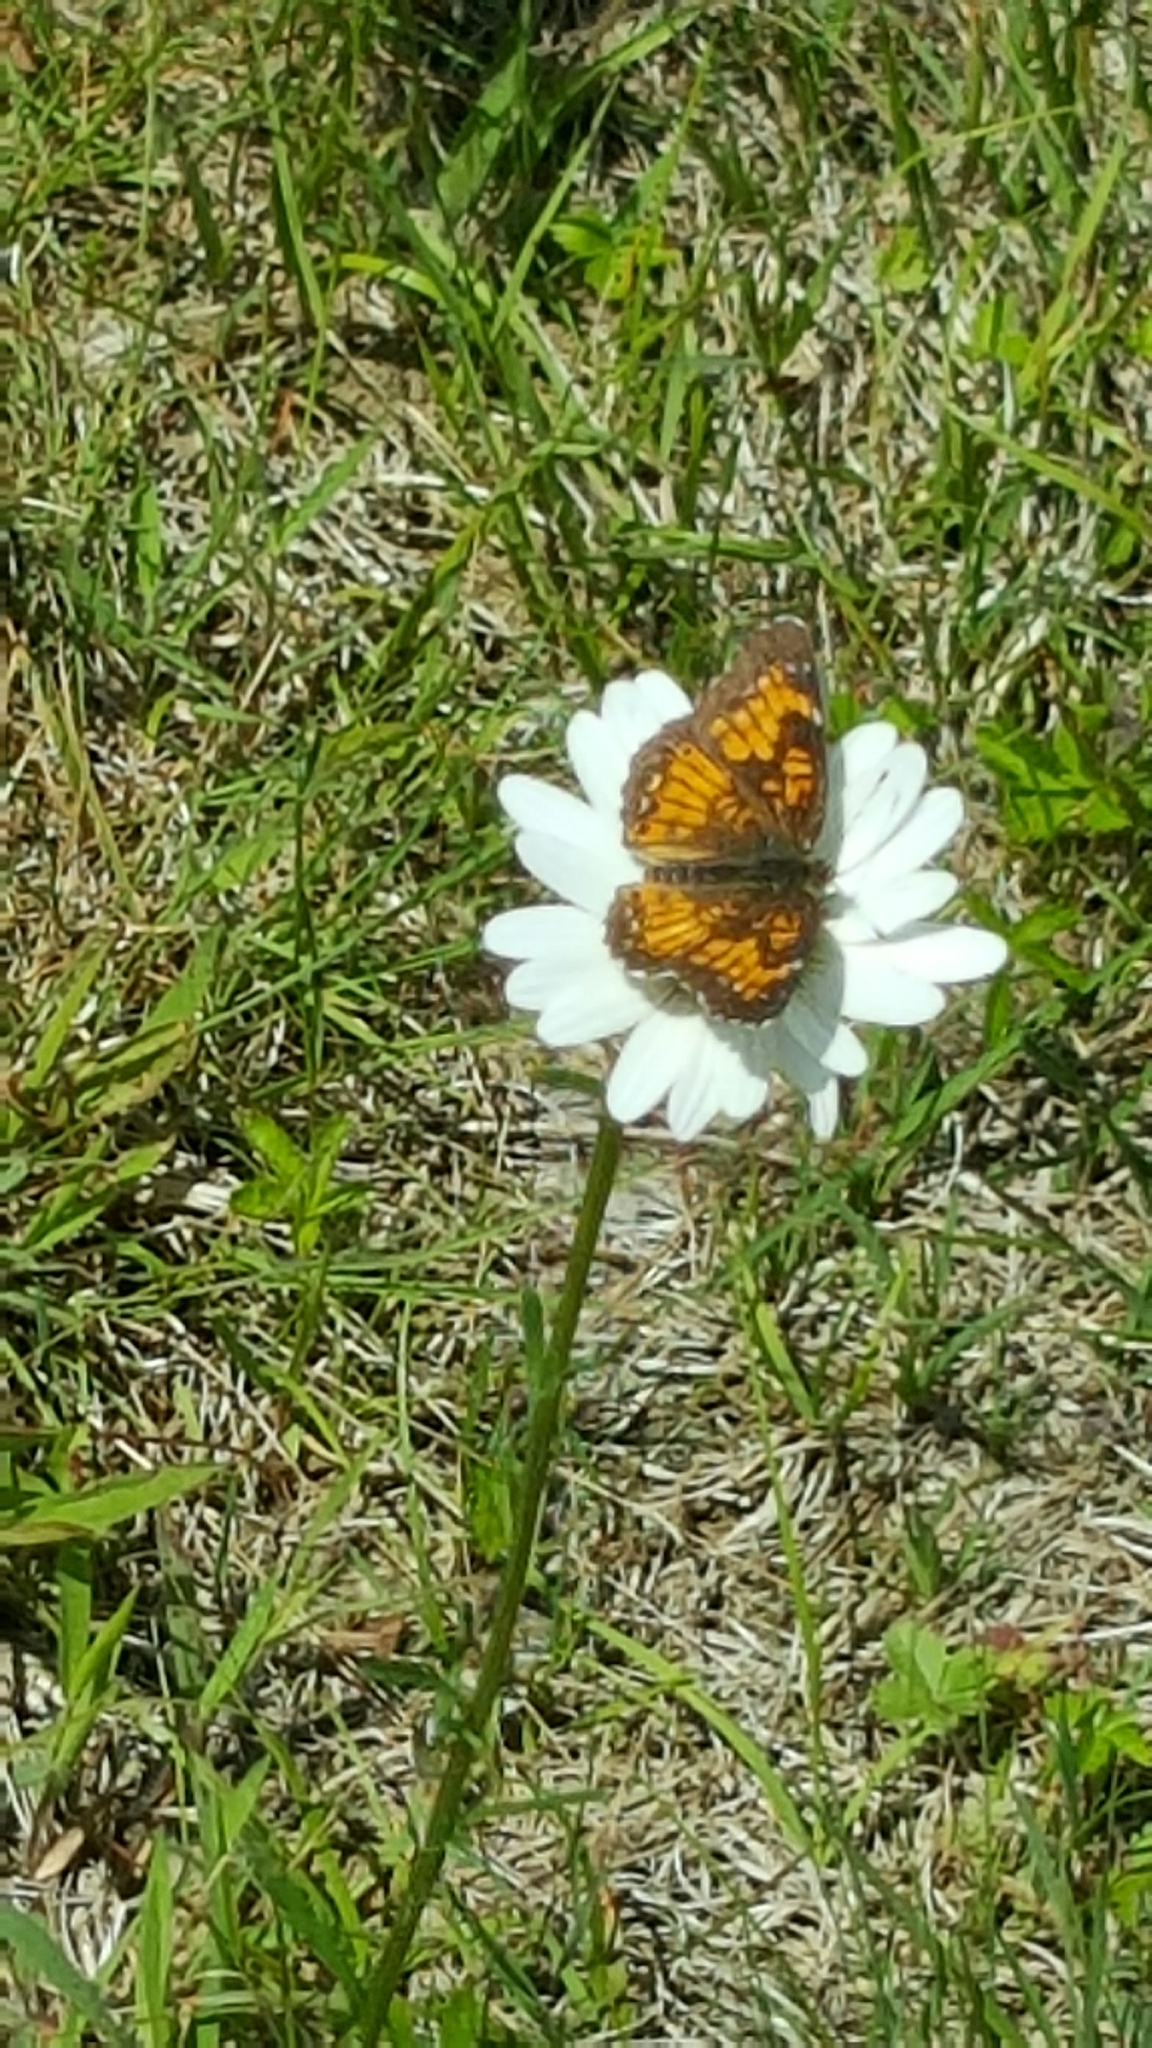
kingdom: Animalia
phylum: Arthropoda
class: Insecta
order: Lepidoptera
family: Nymphalidae
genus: Chlosyne
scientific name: Chlosyne harrisii
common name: Harris's checkerspot
